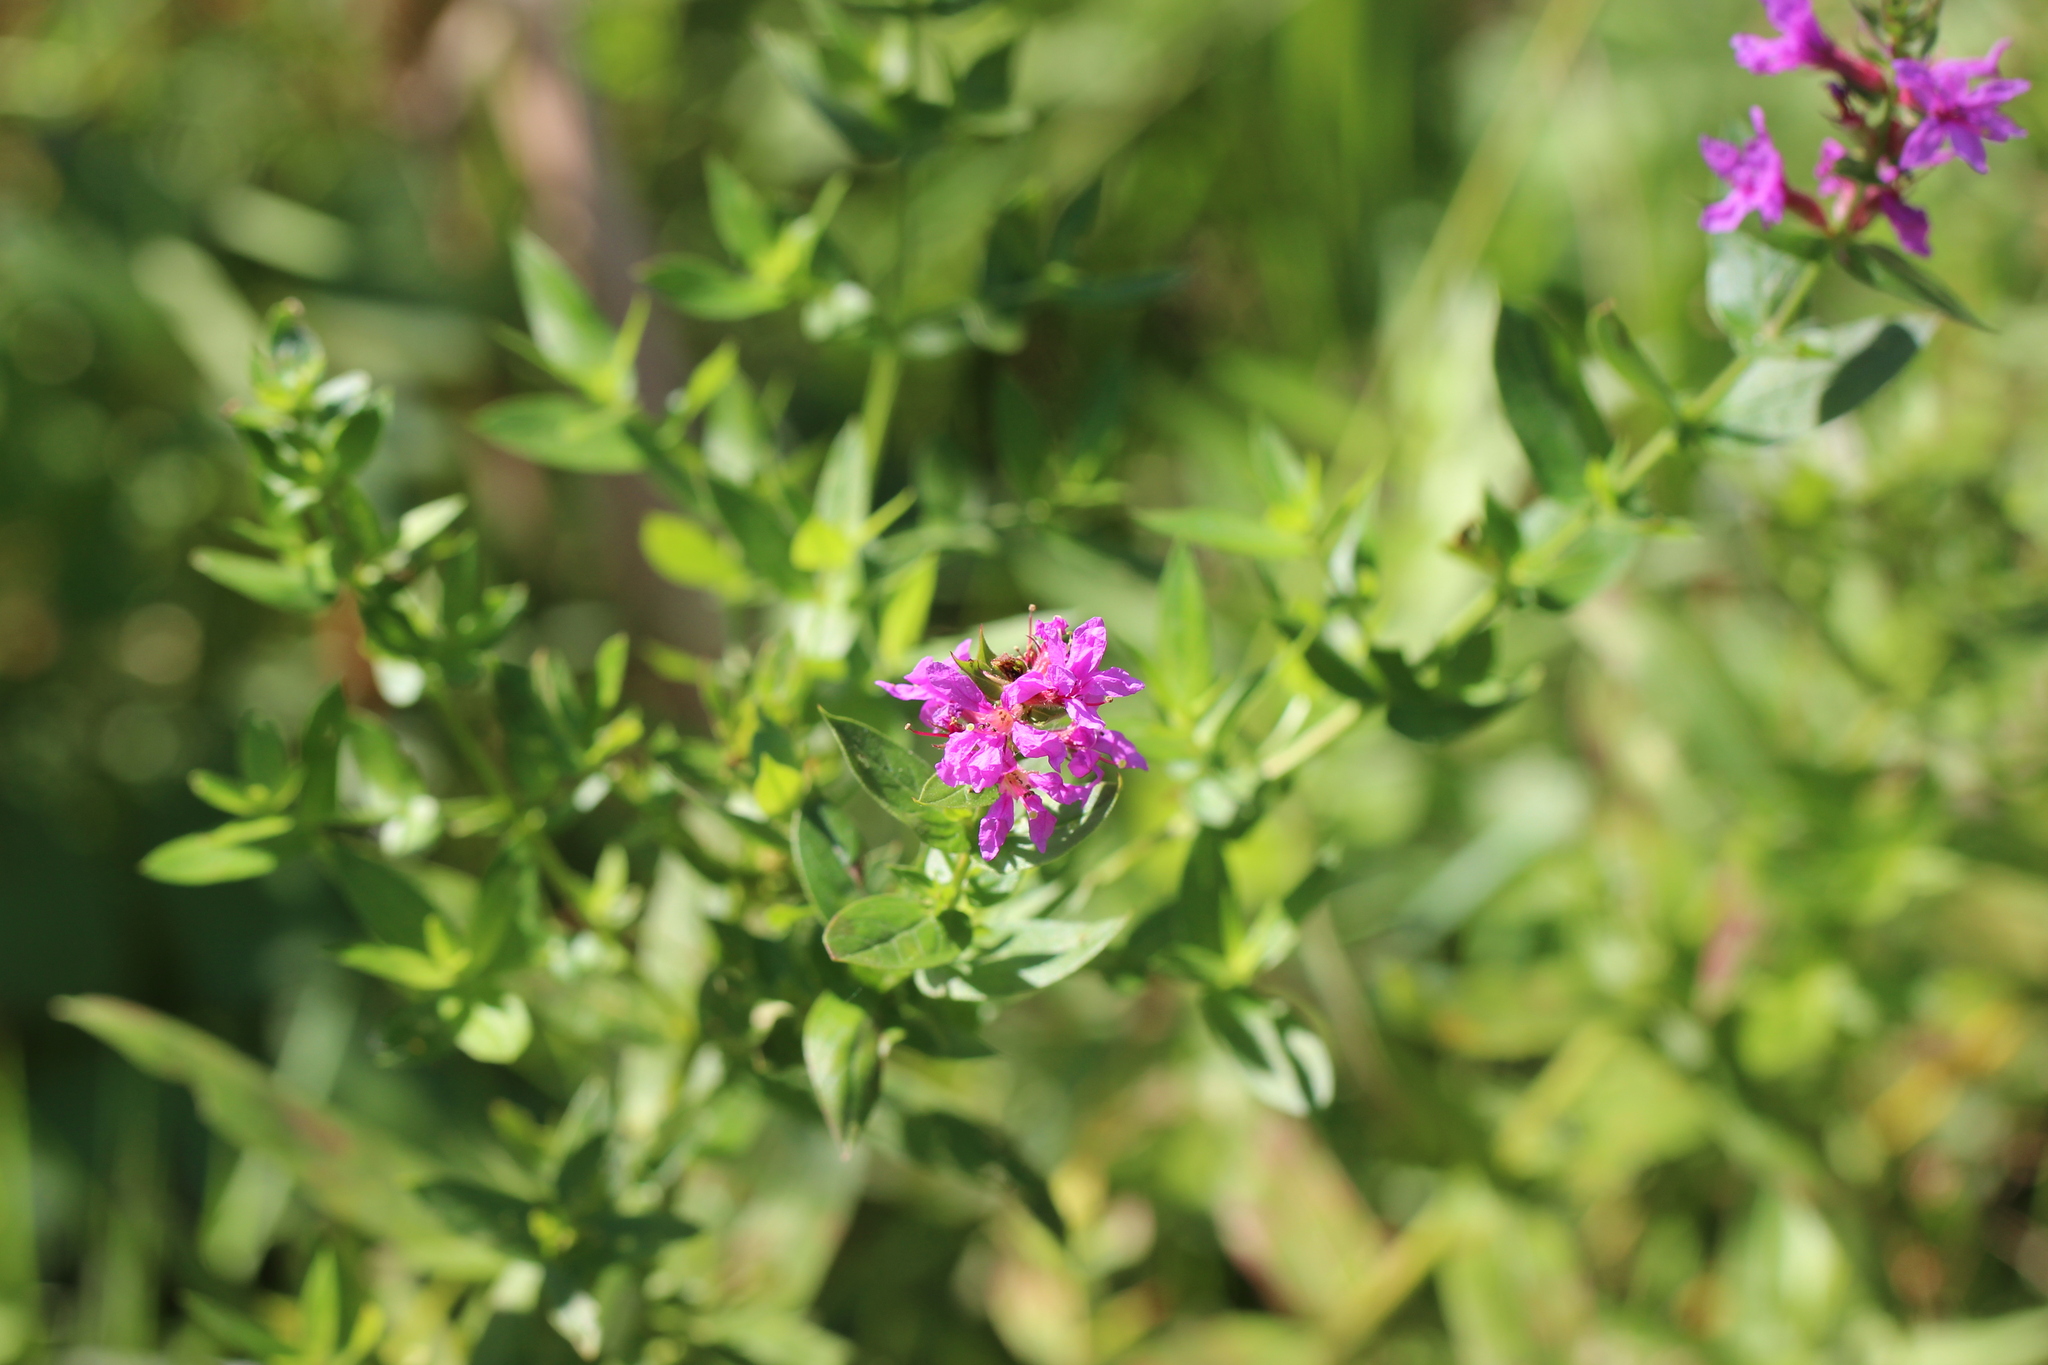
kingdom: Plantae
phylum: Tracheophyta
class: Magnoliopsida
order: Myrtales
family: Lythraceae
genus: Lythrum
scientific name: Lythrum salicaria
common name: Purple loosestrife
